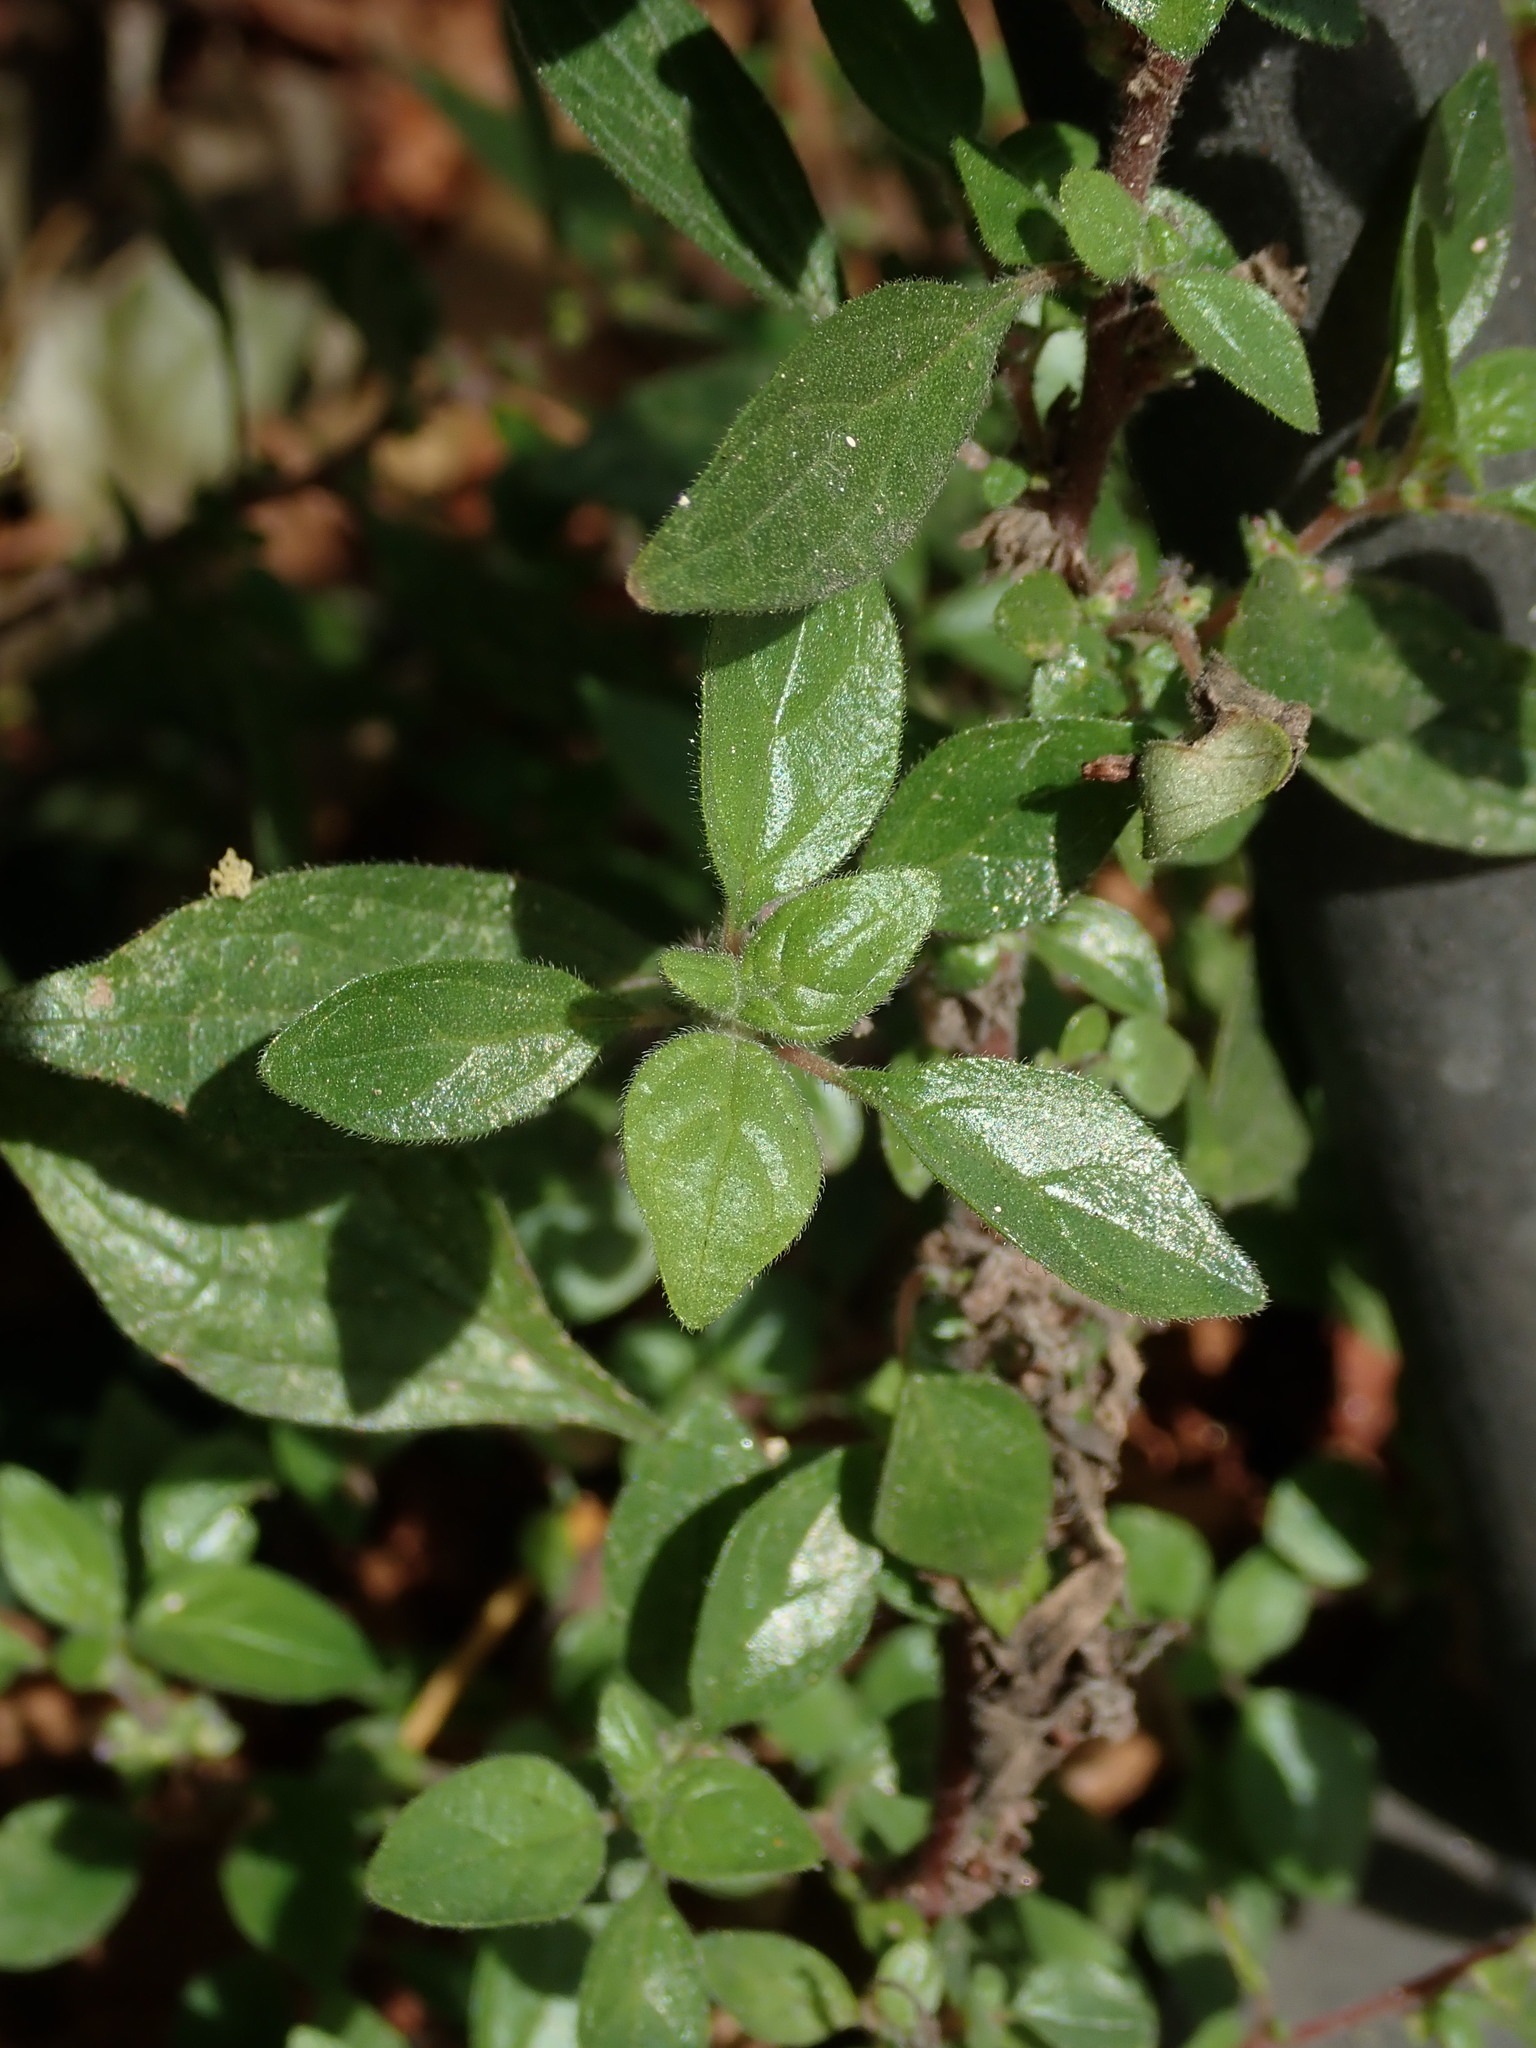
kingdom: Plantae
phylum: Tracheophyta
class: Magnoliopsida
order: Rosales
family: Urticaceae
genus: Parietaria
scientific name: Parietaria judaica
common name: Pellitory-of-the-wall
